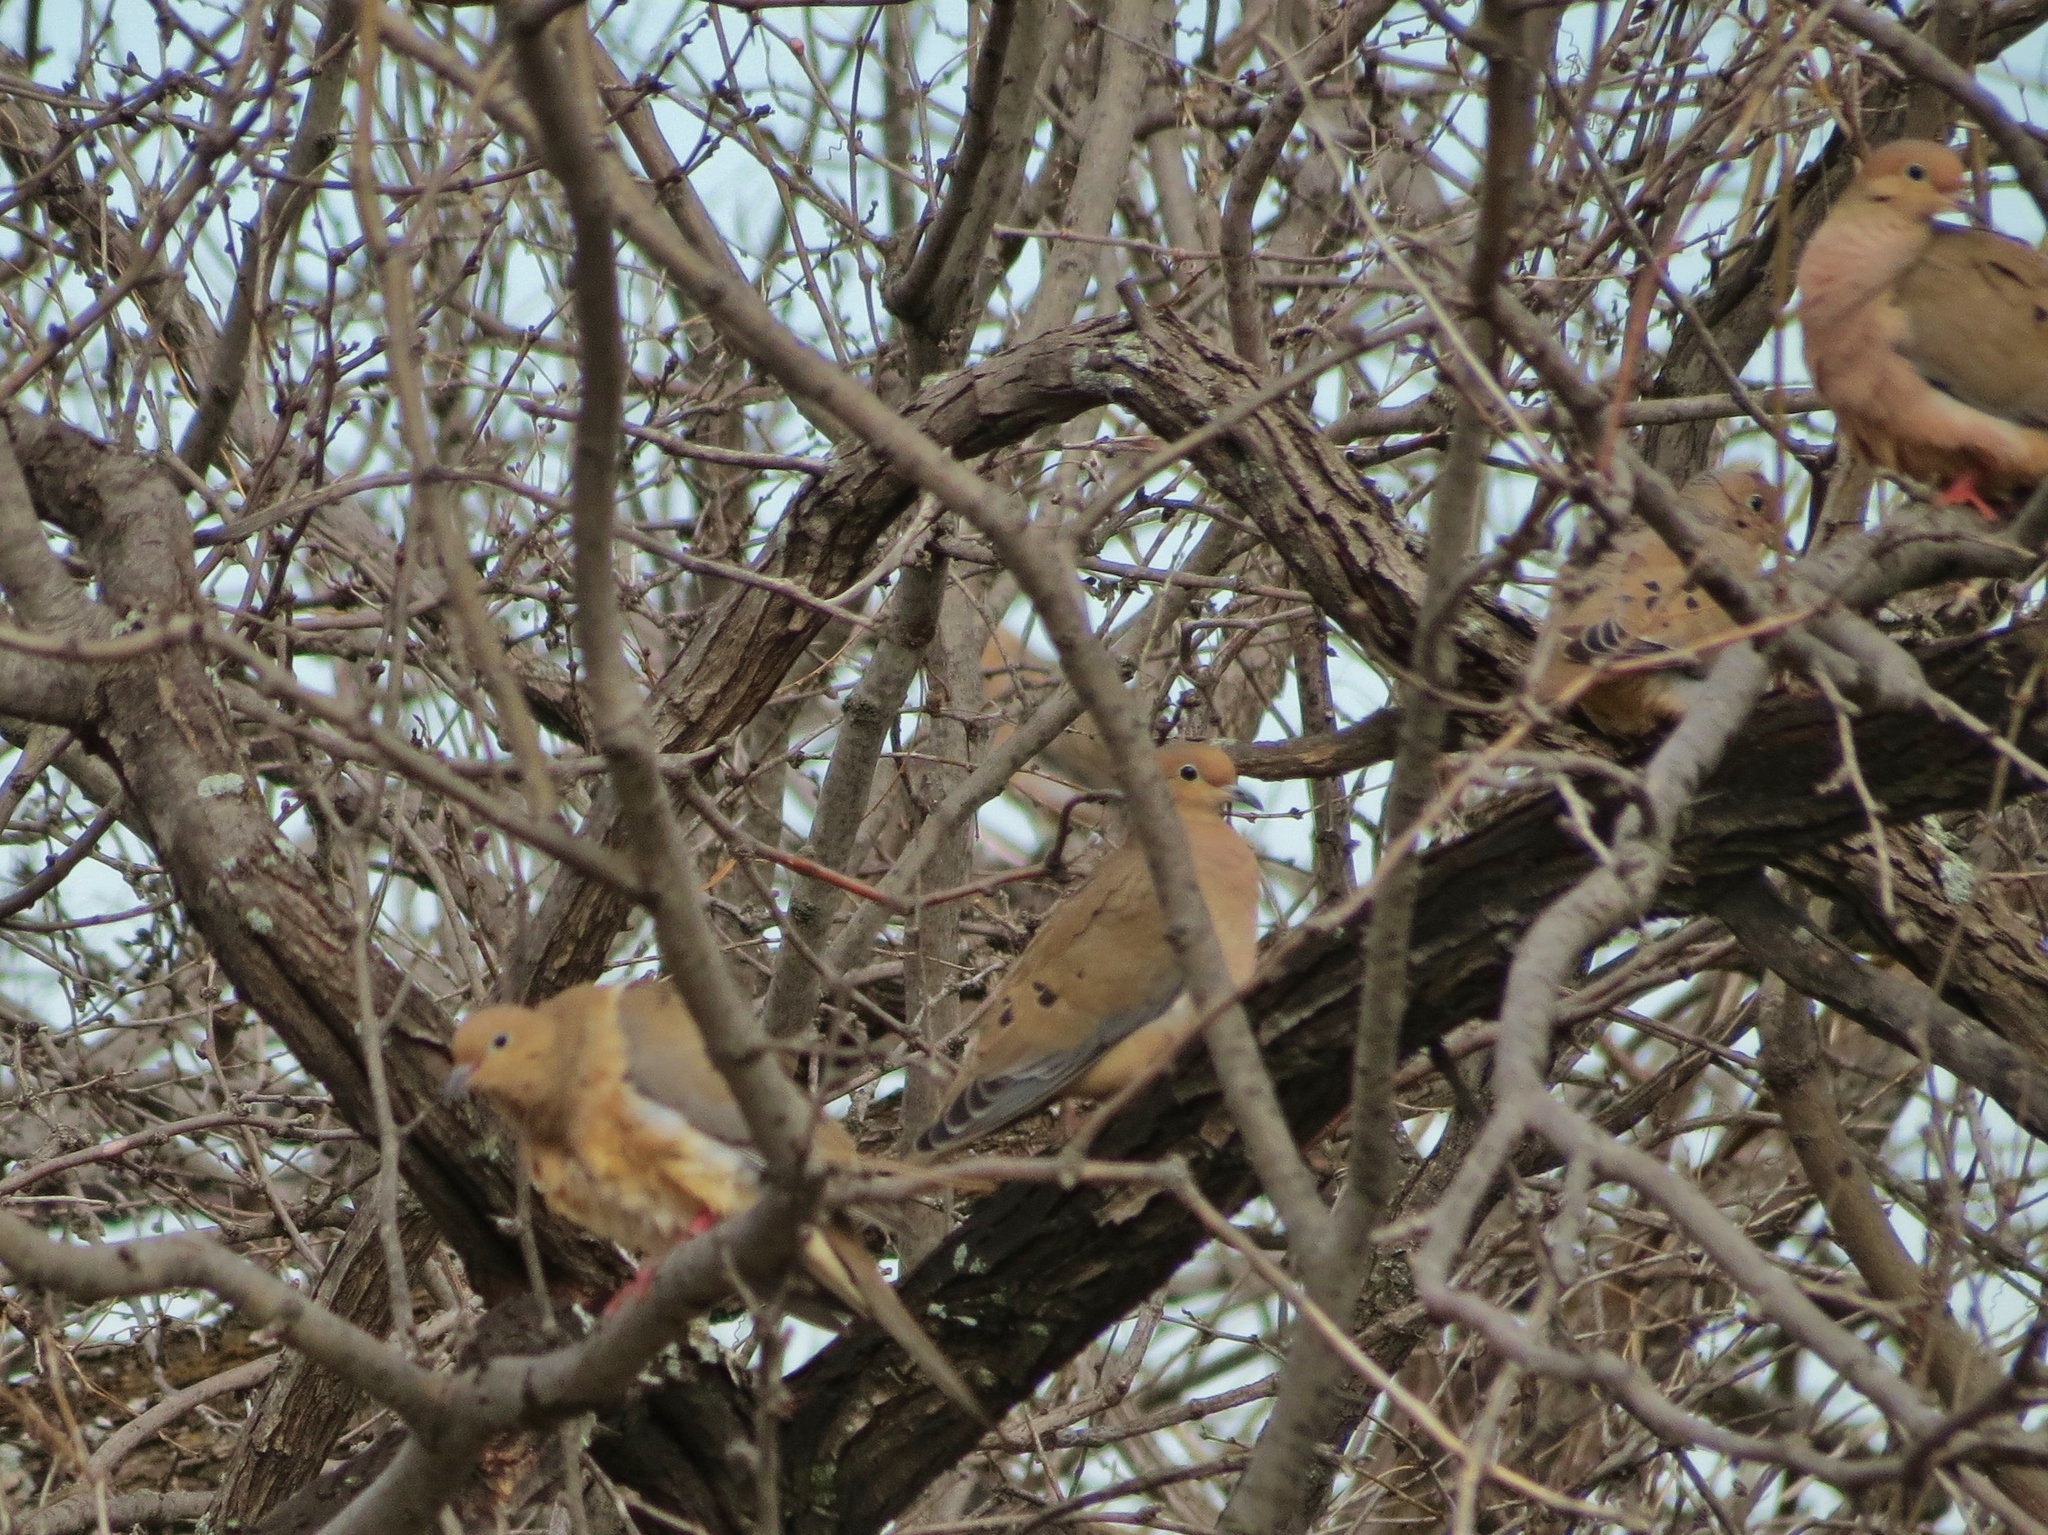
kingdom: Animalia
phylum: Chordata
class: Aves
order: Columbiformes
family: Columbidae
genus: Zenaida
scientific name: Zenaida macroura
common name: Mourning dove
